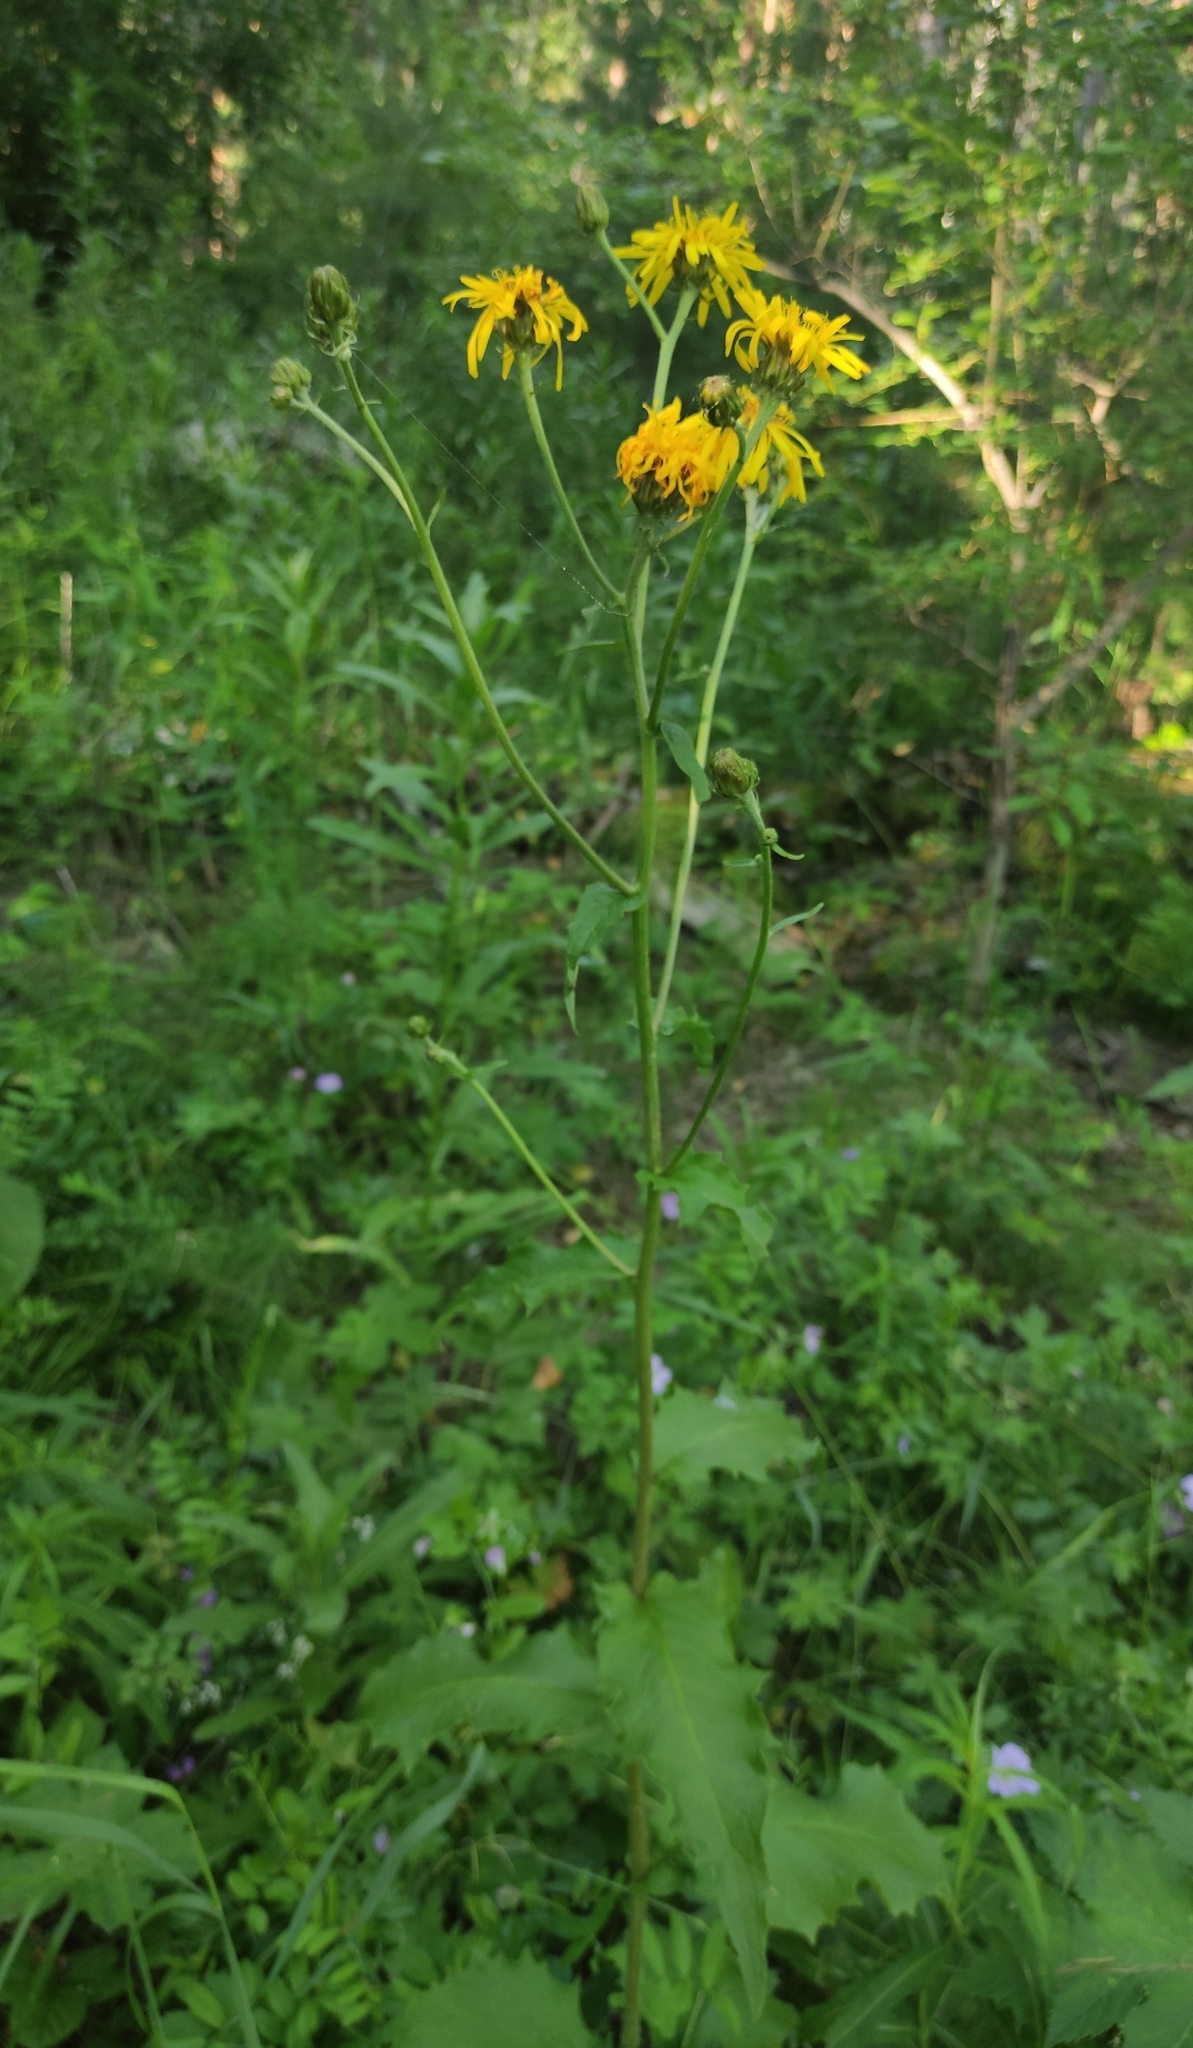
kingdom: Plantae
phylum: Tracheophyta
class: Magnoliopsida
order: Asterales
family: Asteraceae
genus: Crepis
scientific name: Crepis sibirica
